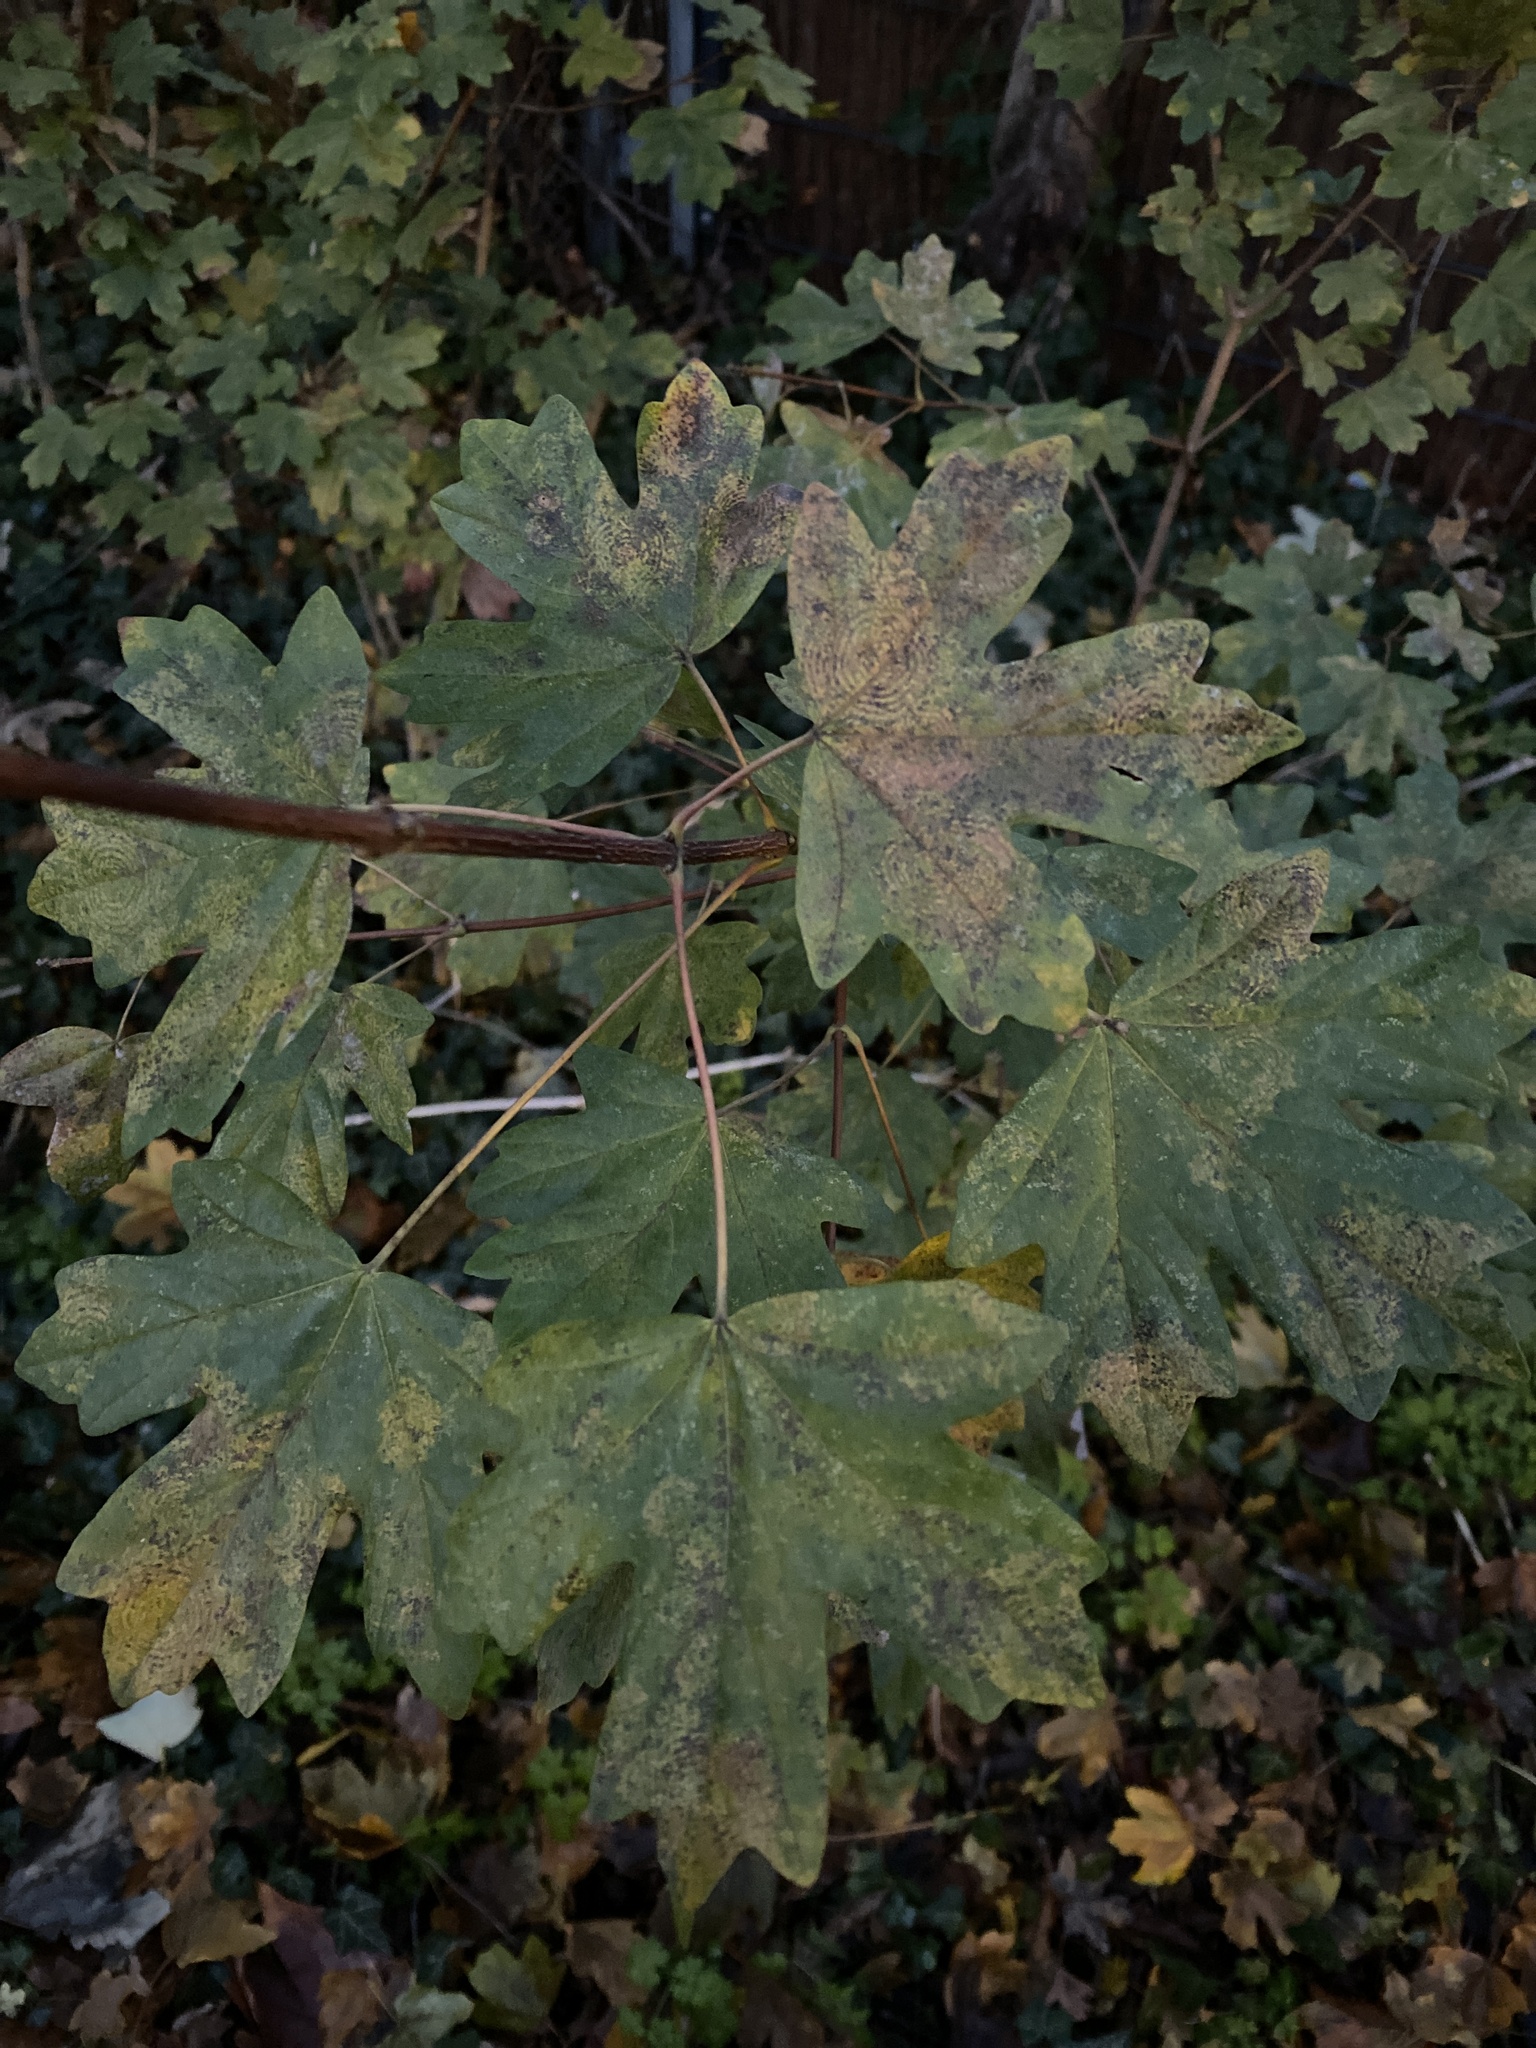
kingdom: Plantae
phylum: Tracheophyta
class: Magnoliopsida
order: Sapindales
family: Sapindaceae
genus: Acer
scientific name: Acer campestre
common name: Field maple
